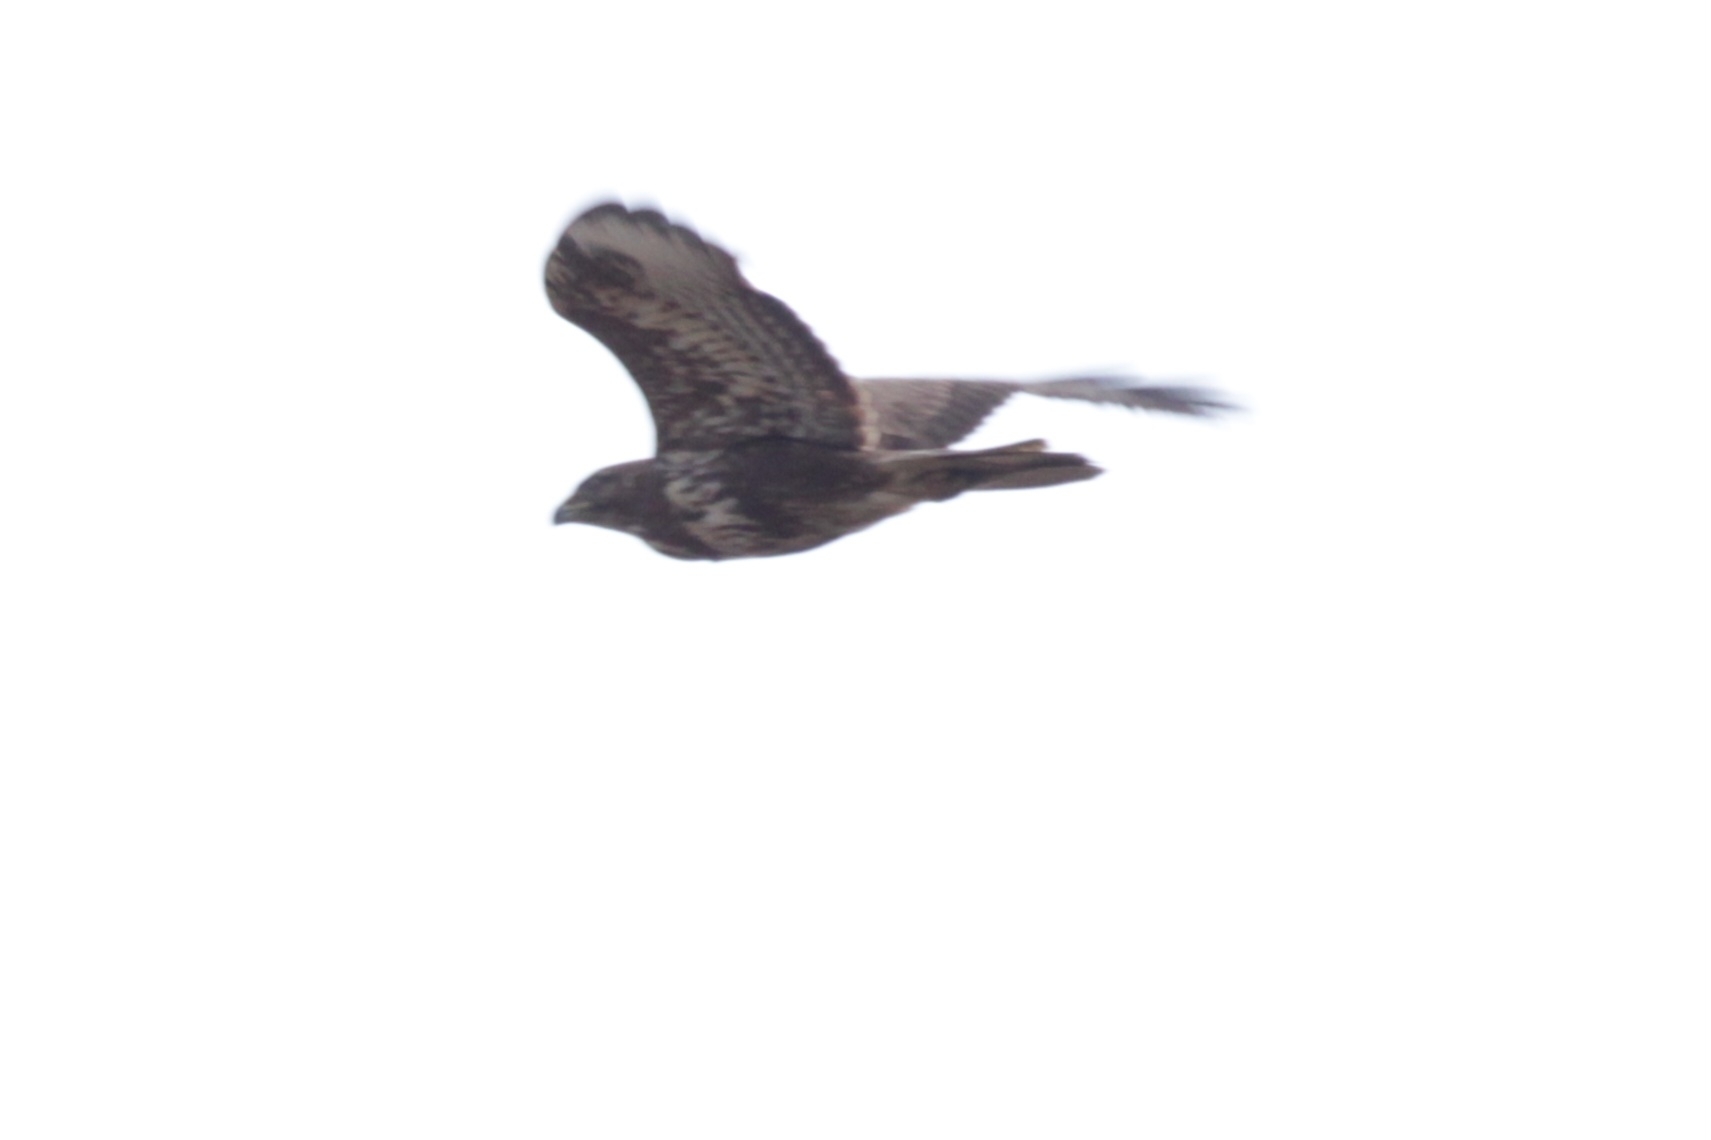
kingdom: Animalia
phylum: Chordata
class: Aves
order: Accipitriformes
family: Accipitridae
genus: Buteo
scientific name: Buteo buteo
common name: Common buzzard
